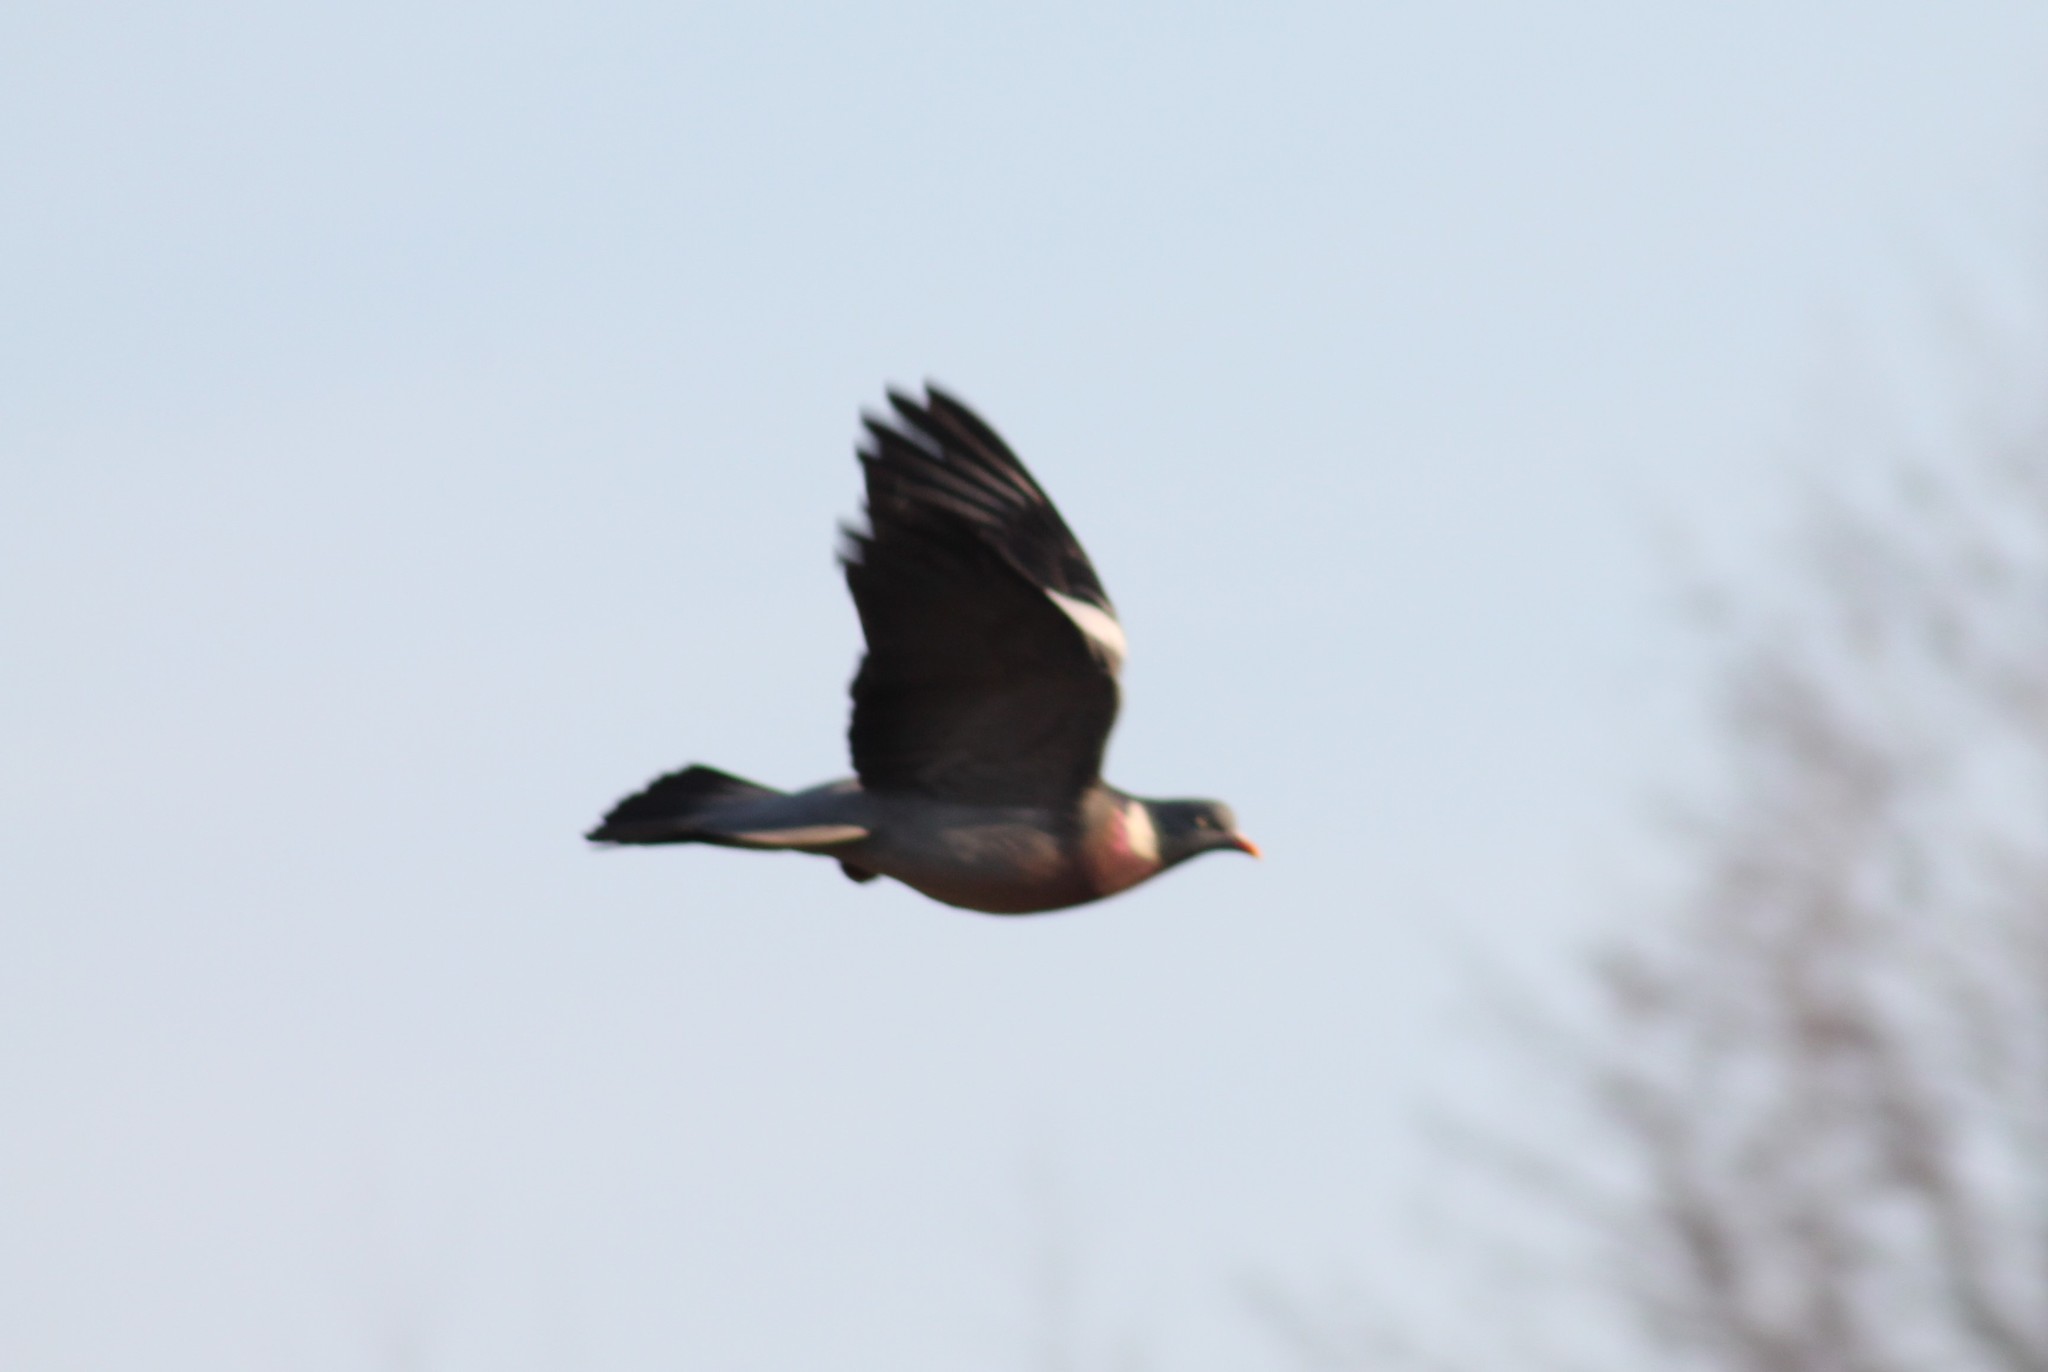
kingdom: Animalia
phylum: Chordata
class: Aves
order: Columbiformes
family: Columbidae
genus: Columba
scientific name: Columba palumbus
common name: Common wood pigeon
